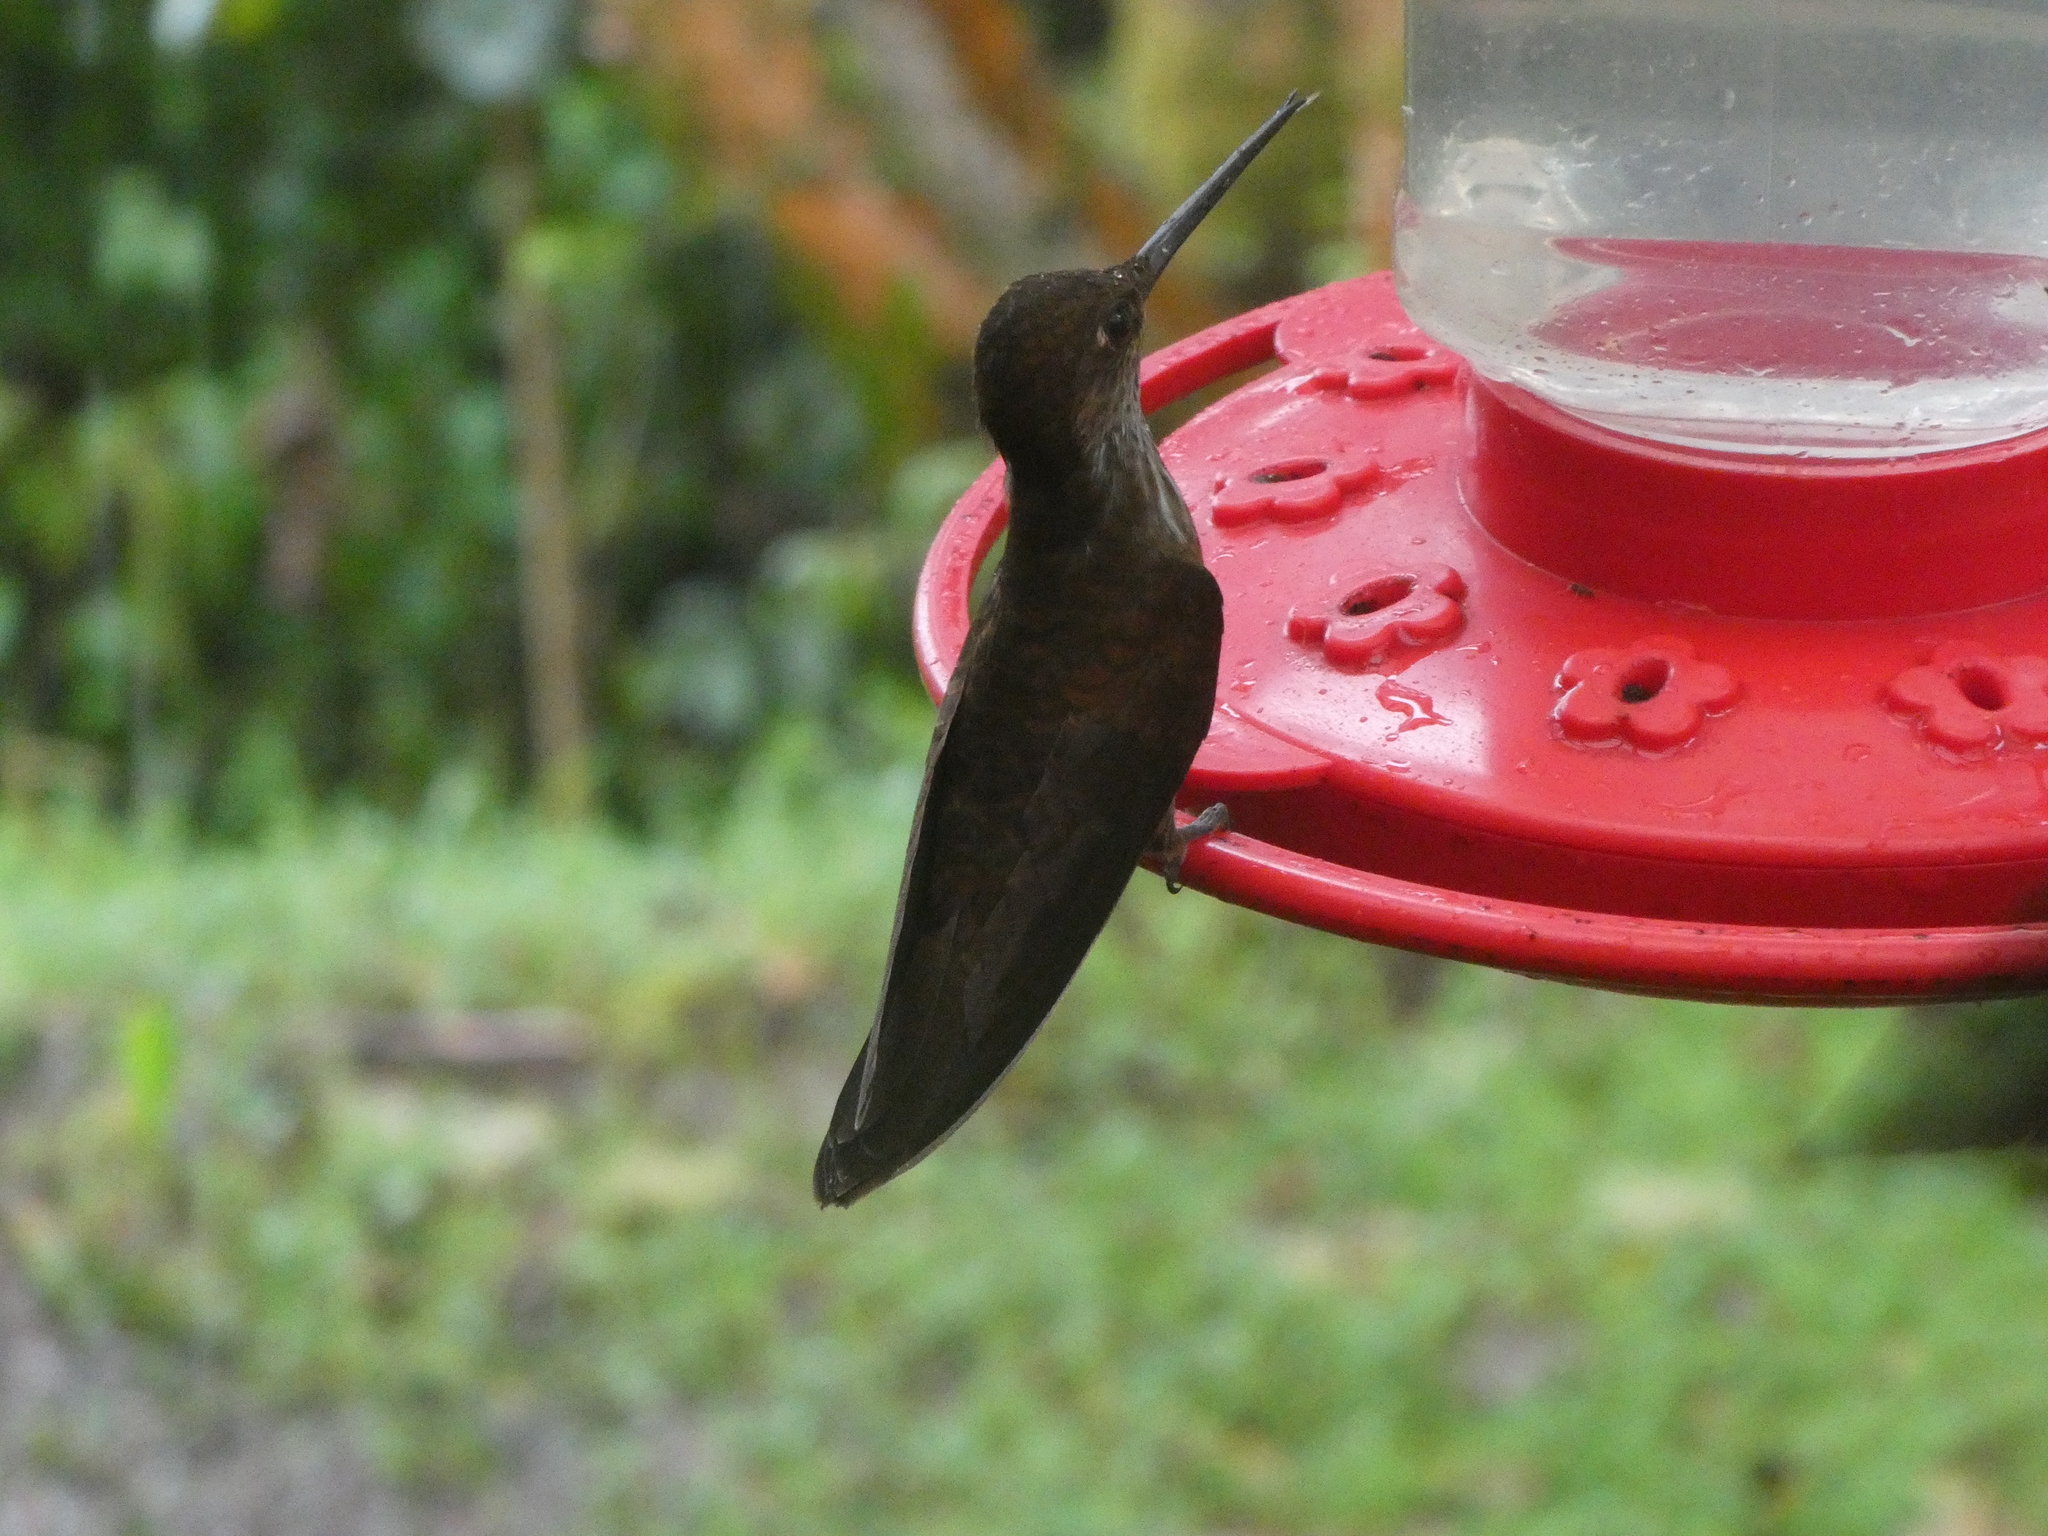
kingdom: Animalia
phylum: Chordata
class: Aves
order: Apodiformes
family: Trochilidae
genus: Coeligena
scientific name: Coeligena coeligena
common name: Bronzy inca
